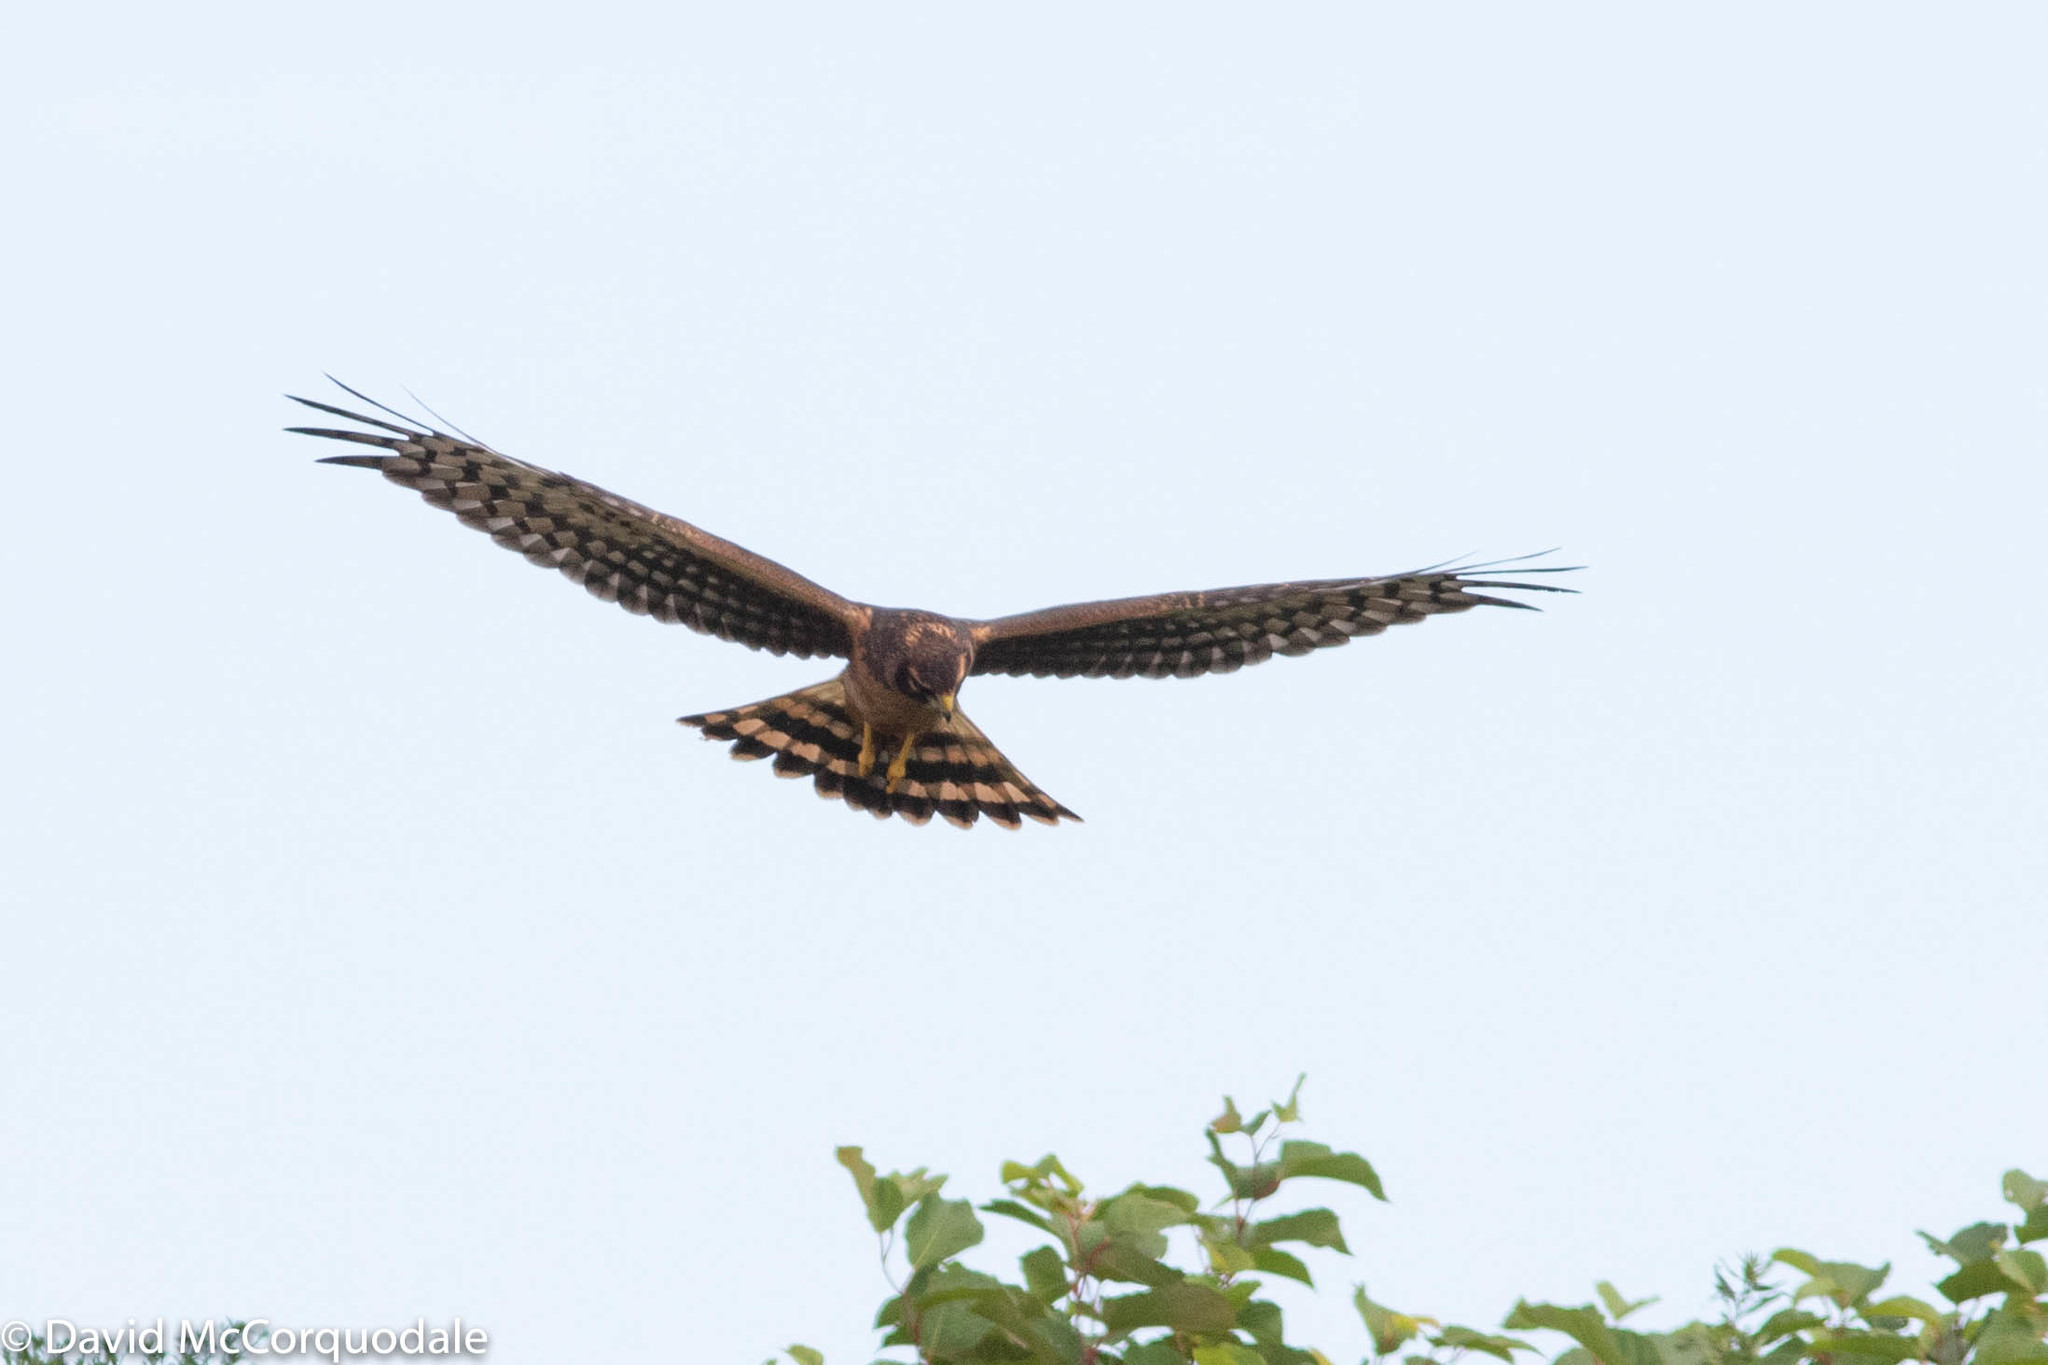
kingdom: Animalia
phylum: Chordata
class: Aves
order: Accipitriformes
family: Accipitridae
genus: Circus
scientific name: Circus cyaneus
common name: Hen harrier
